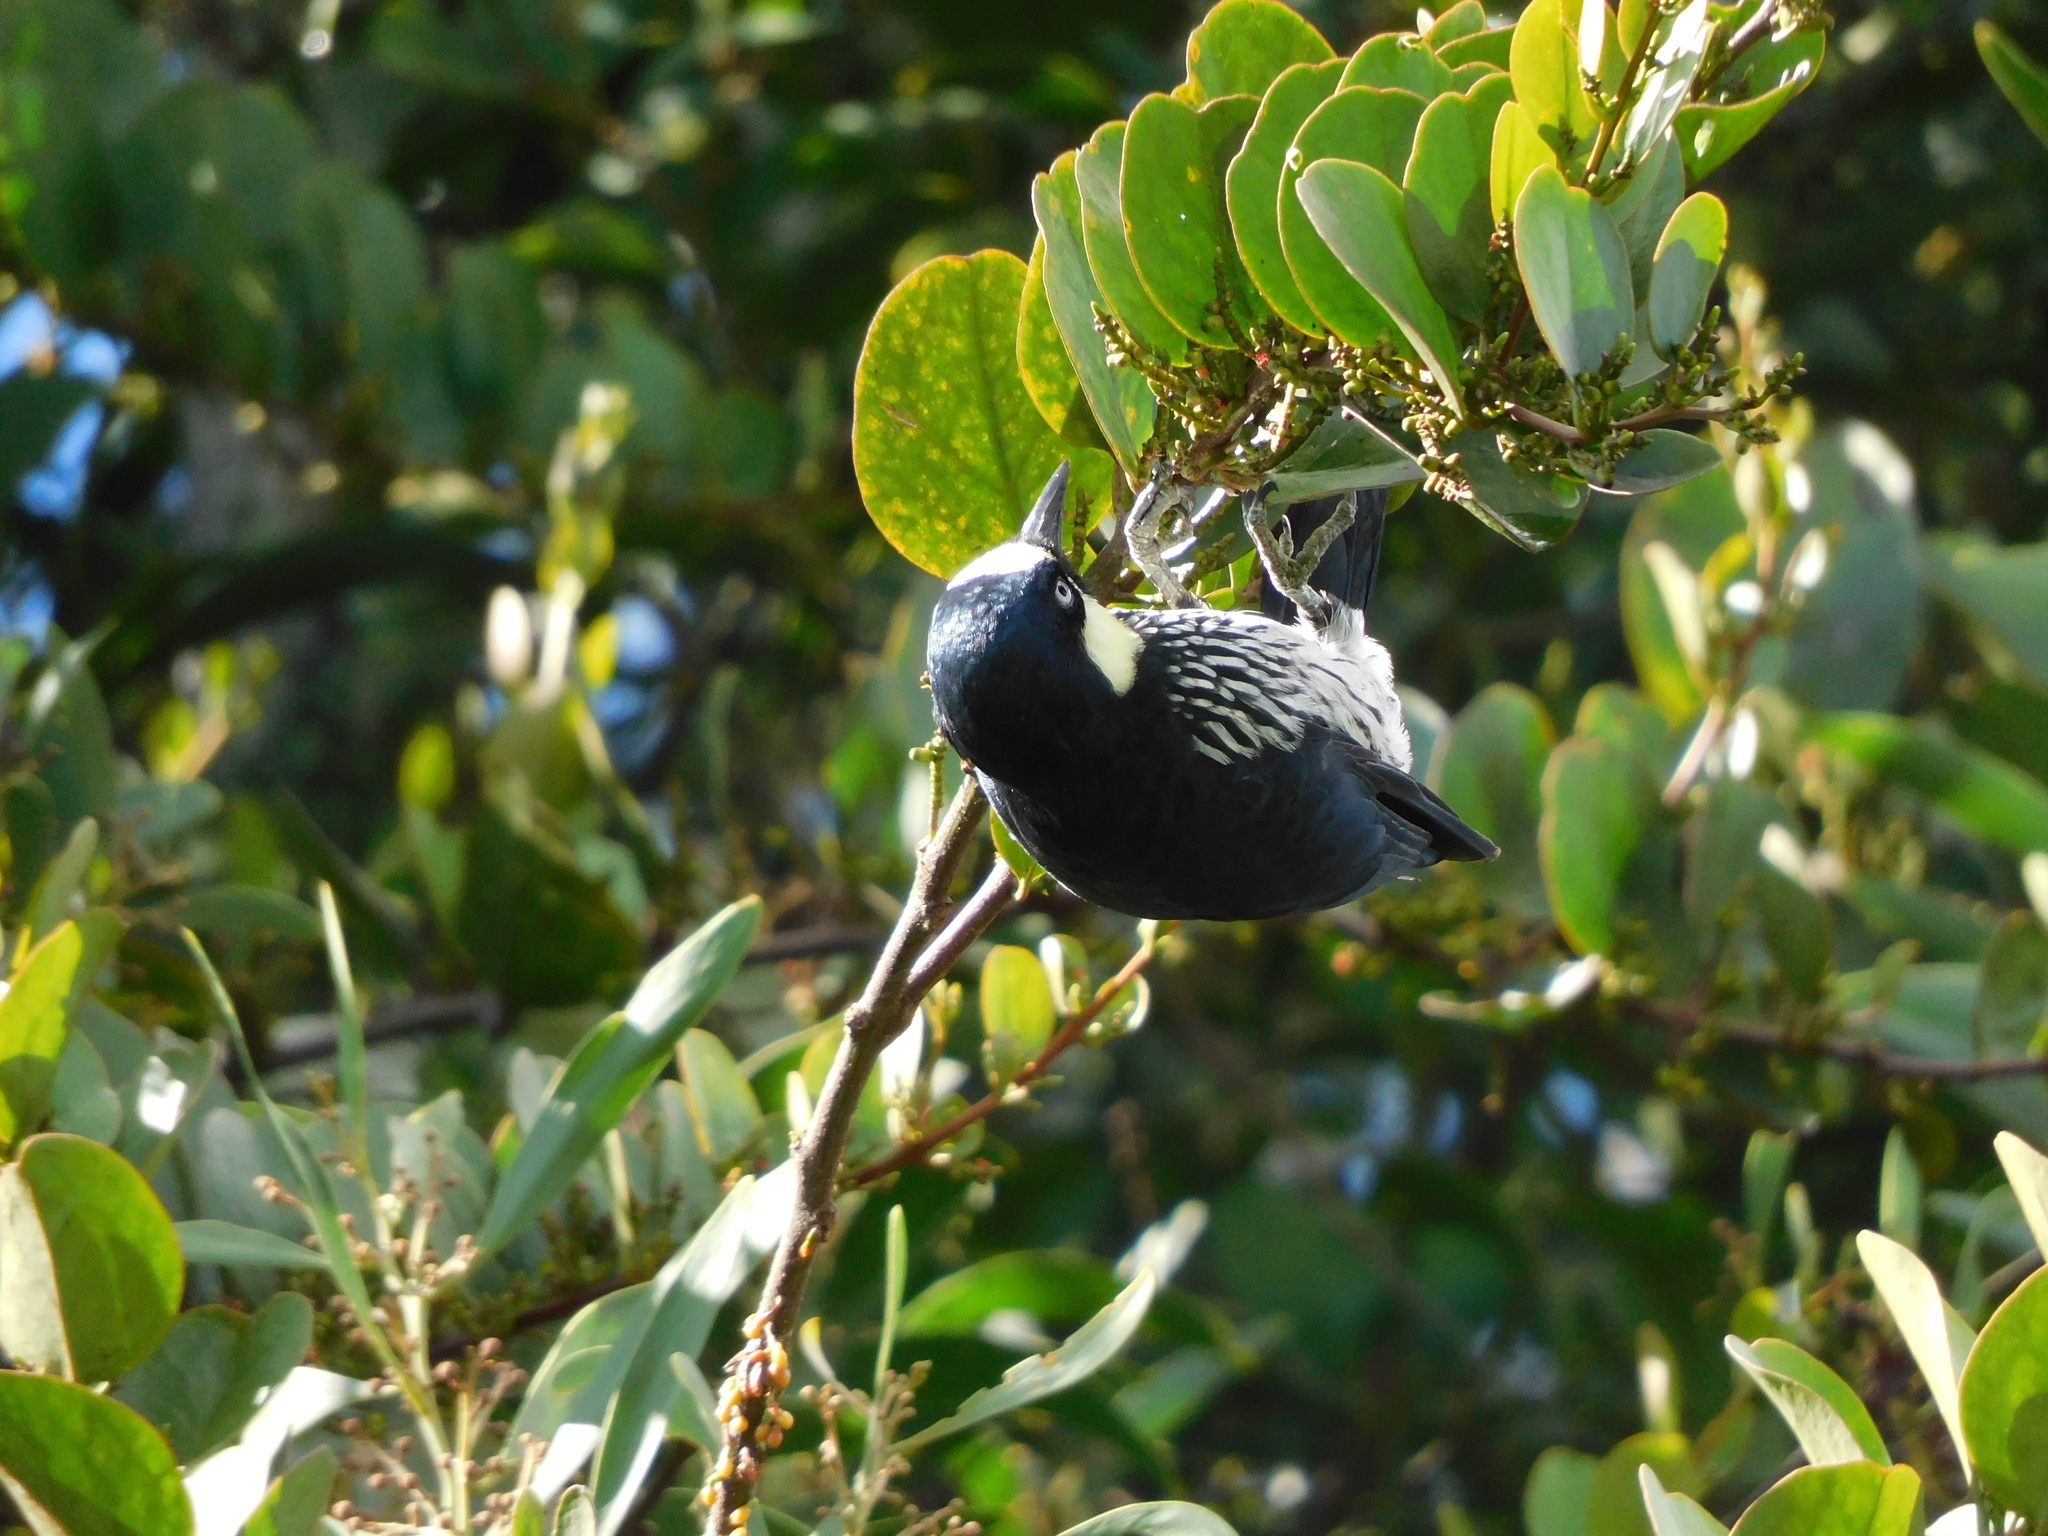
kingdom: Animalia
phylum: Chordata
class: Aves
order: Piciformes
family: Picidae
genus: Melanerpes
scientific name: Melanerpes formicivorus
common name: Acorn woodpecker
